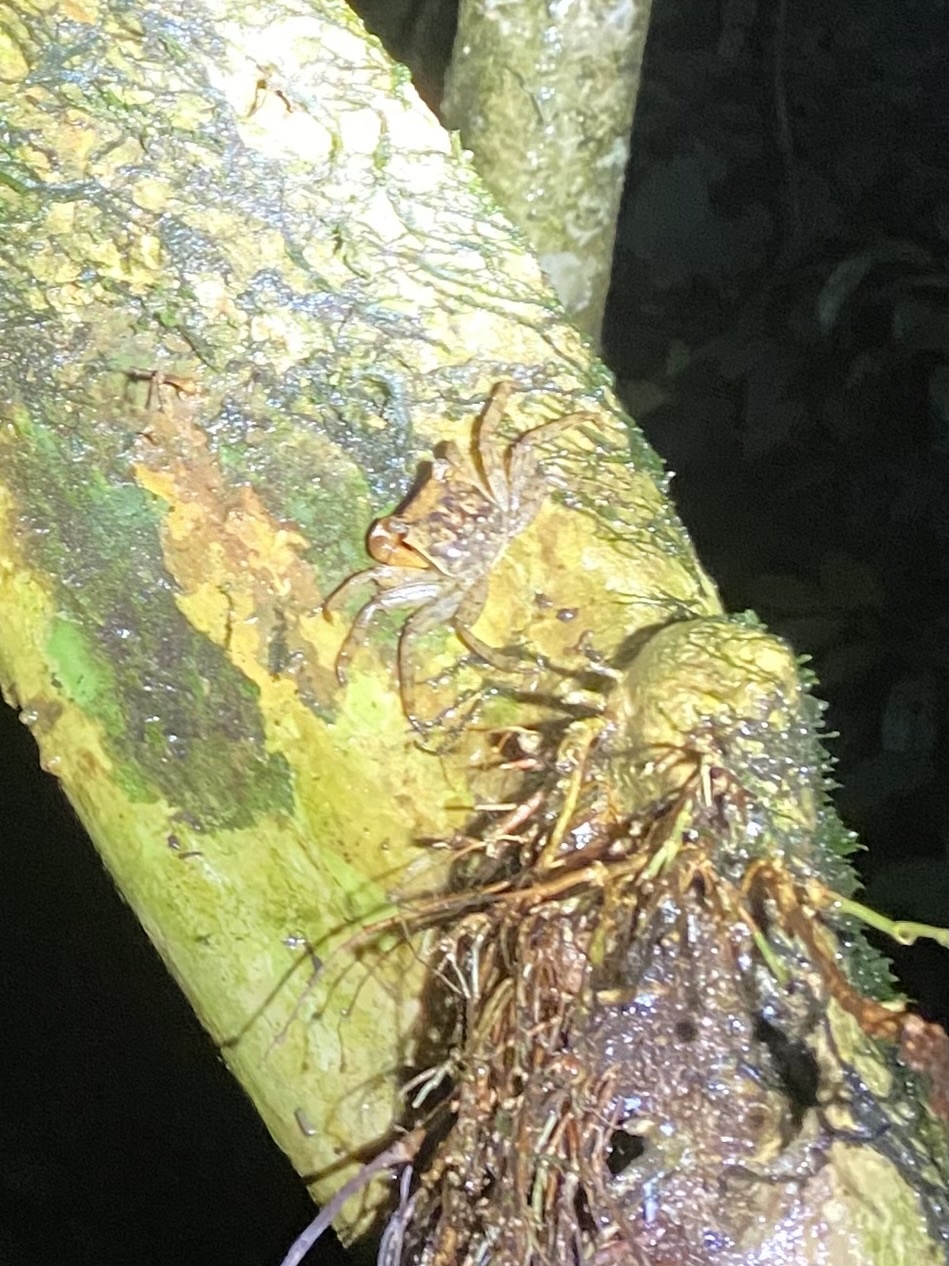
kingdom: Animalia
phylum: Arthropoda
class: Malacostraca
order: Decapoda
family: Sesarmidae
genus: Armases
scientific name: Armases angustum
